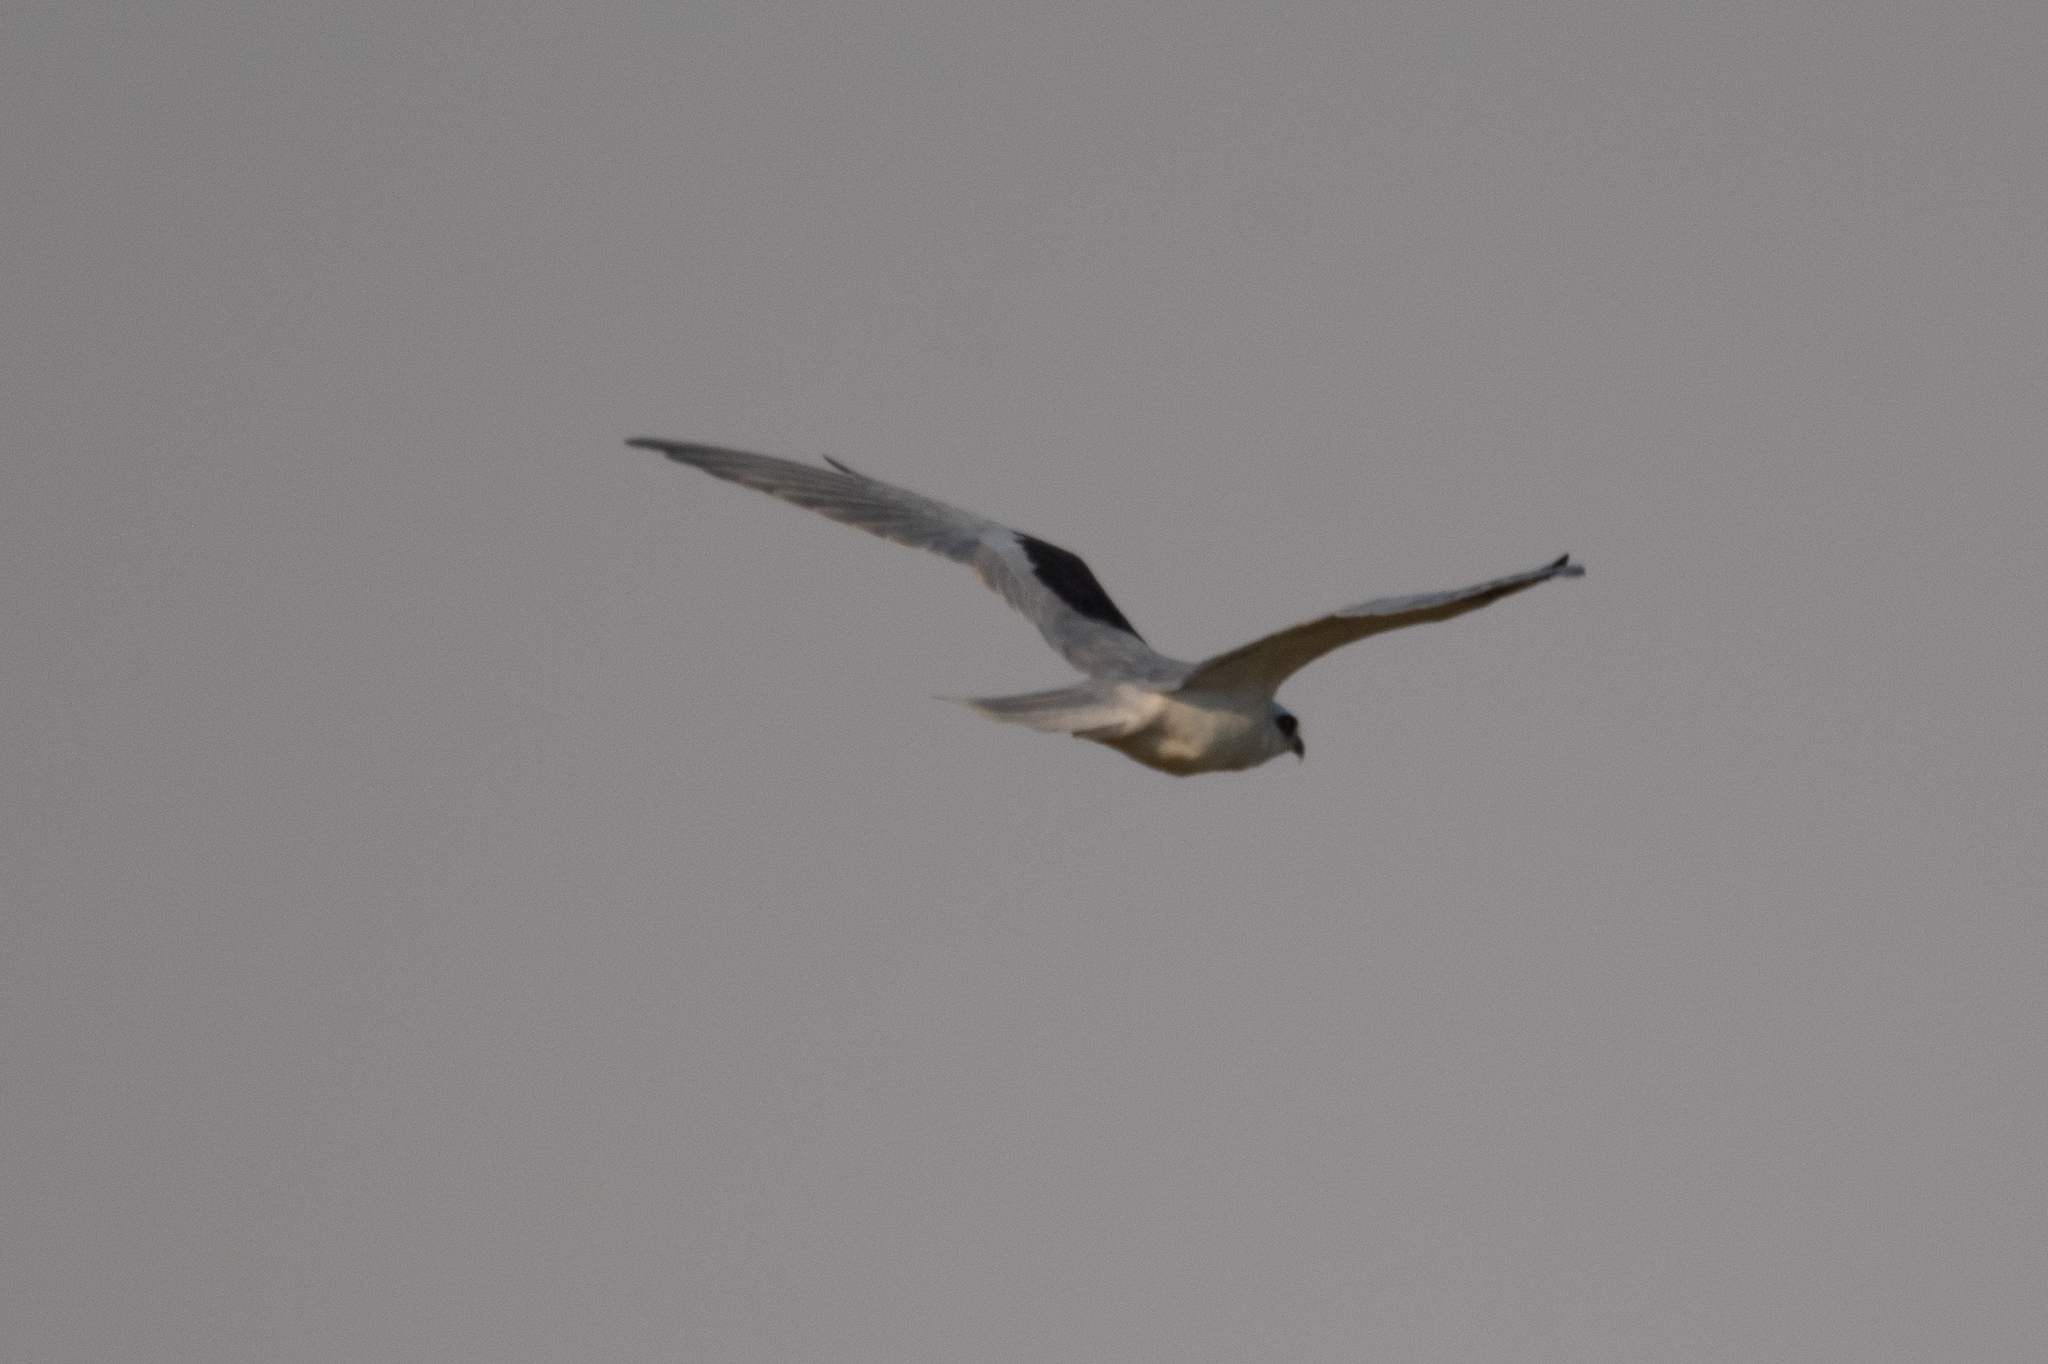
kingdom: Animalia
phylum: Chordata
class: Aves
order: Accipitriformes
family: Accipitridae
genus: Elanus
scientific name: Elanus leucurus
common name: White-tailed kite
